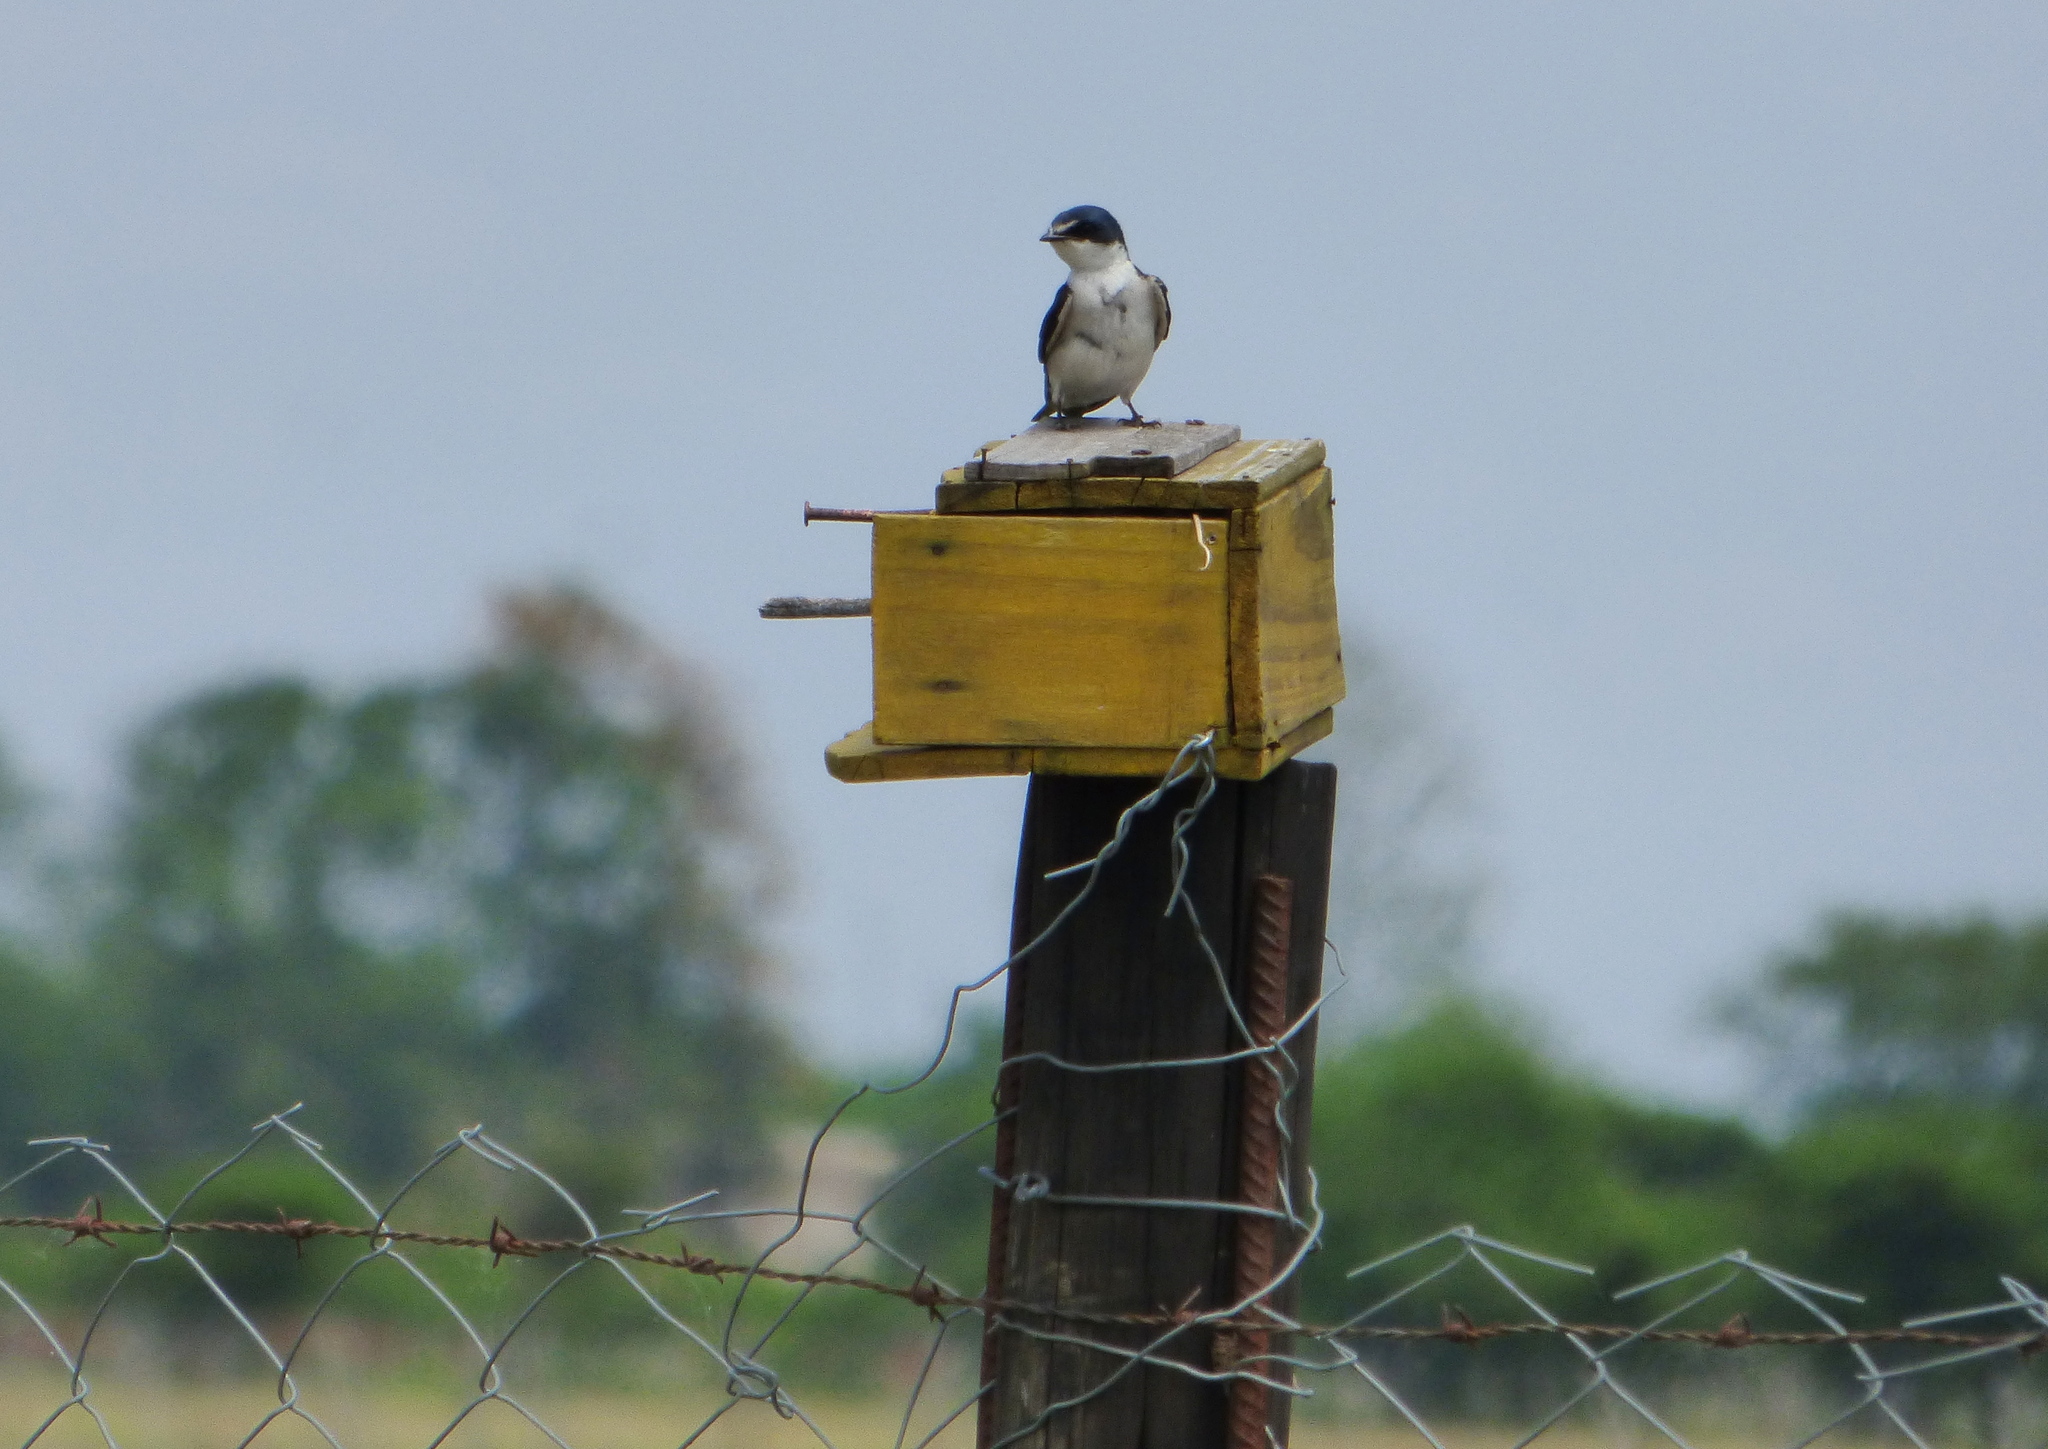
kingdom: Animalia
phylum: Chordata
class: Aves
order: Passeriformes
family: Hirundinidae
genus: Tachycineta
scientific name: Tachycineta leucorrhoa
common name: White-rumped swallow
